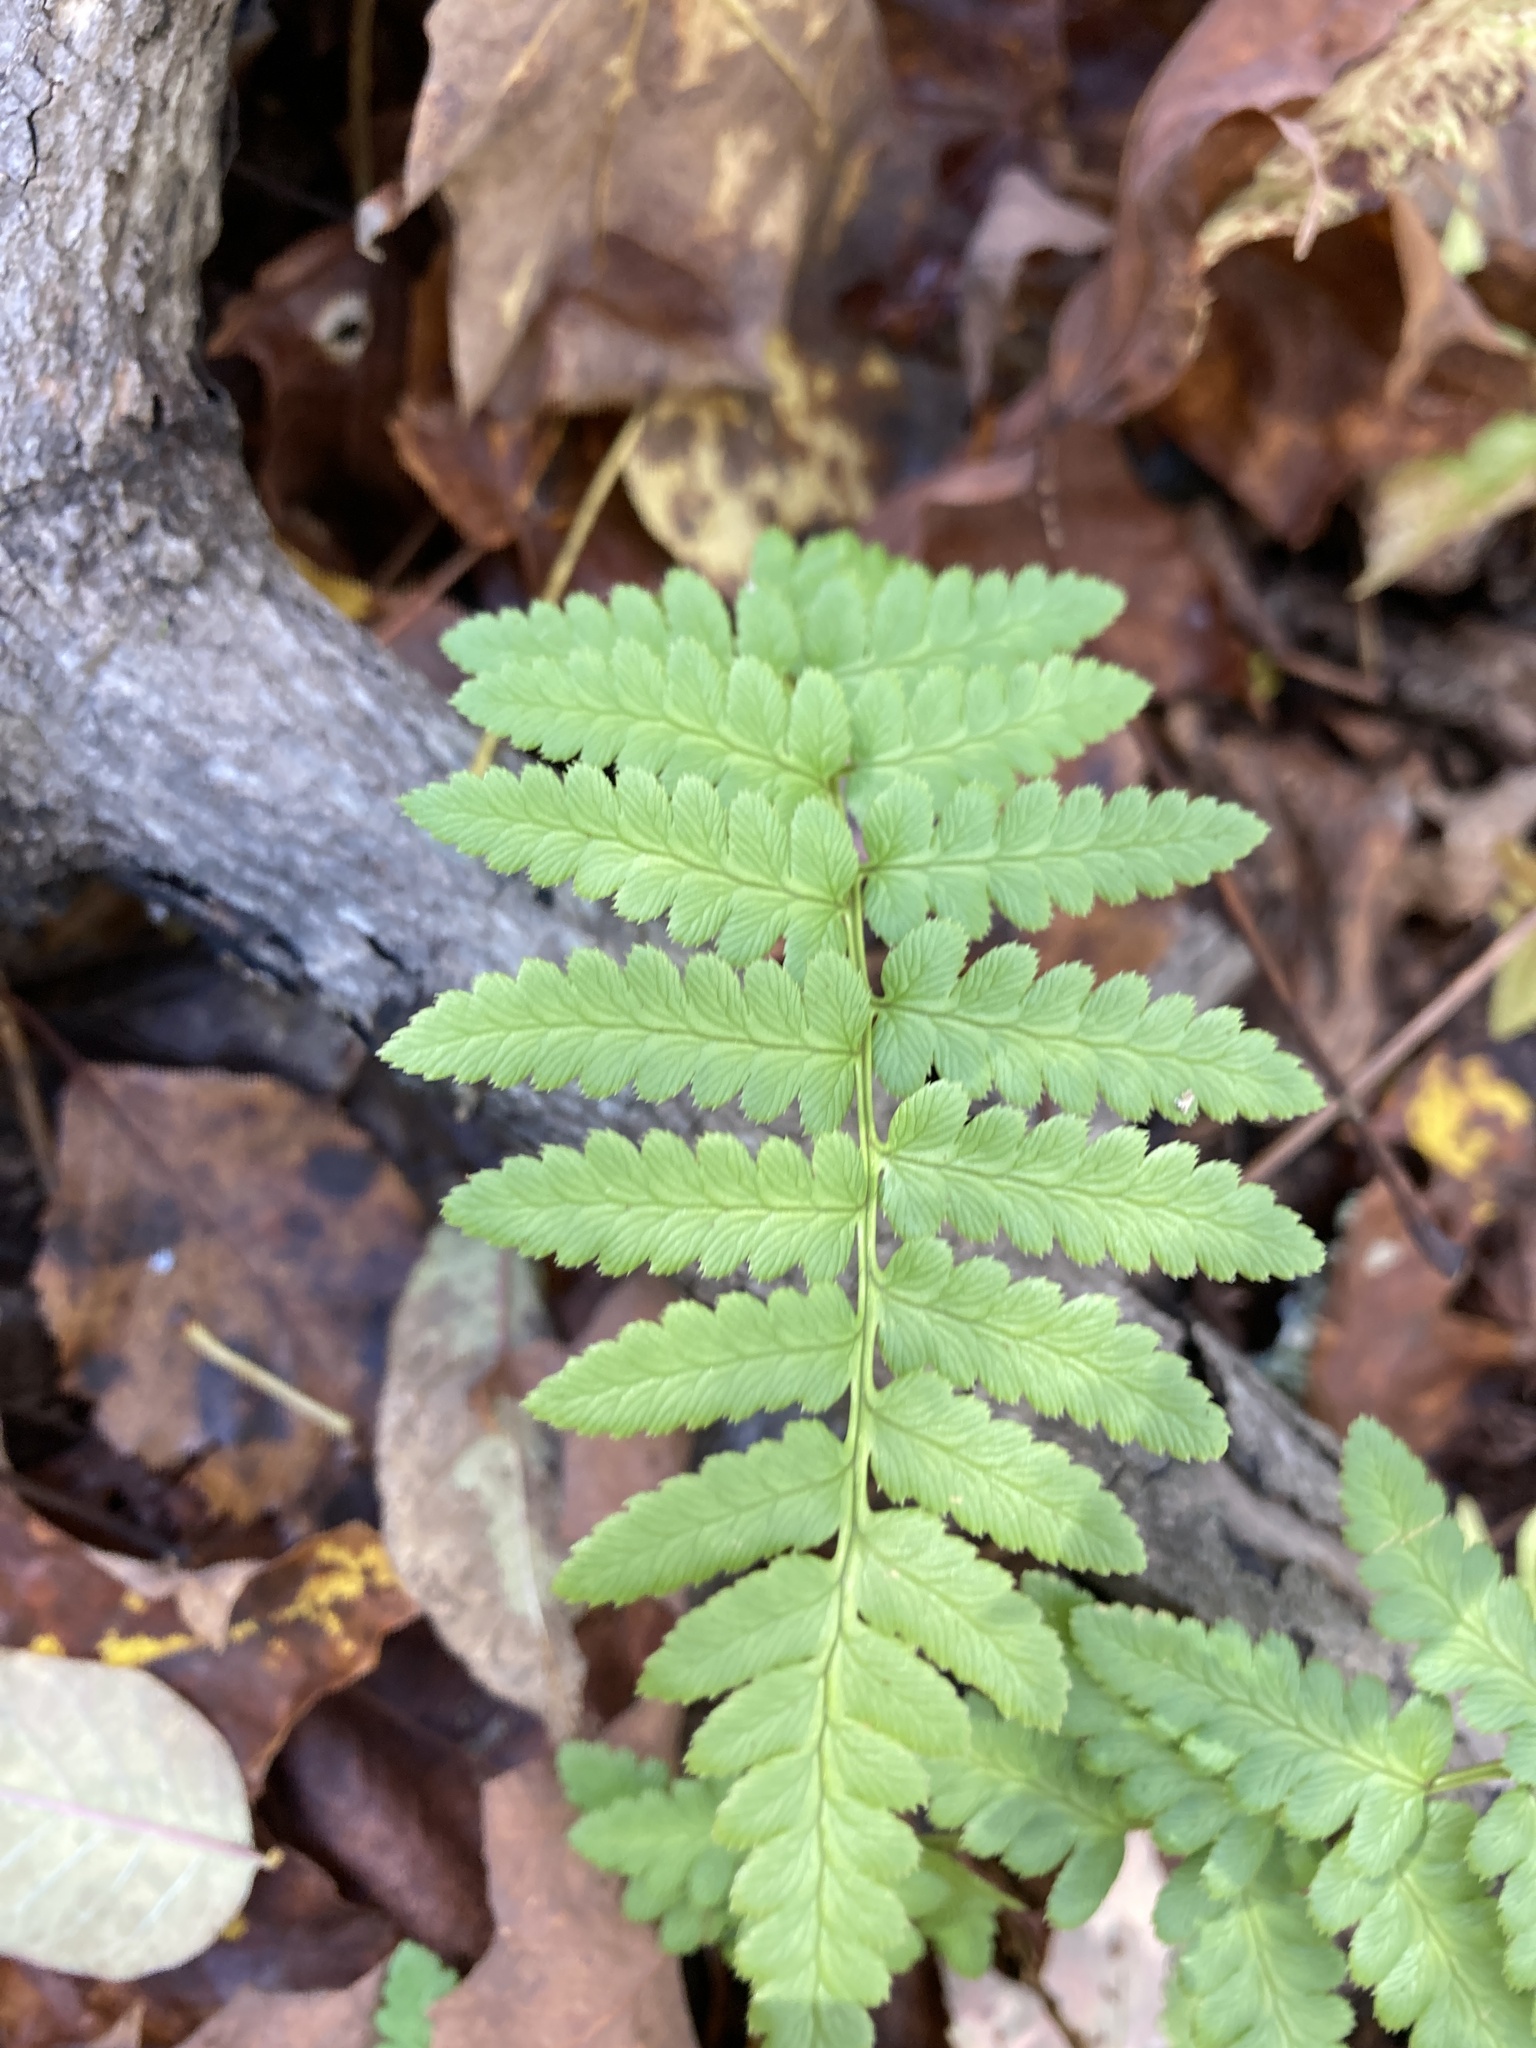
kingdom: Plantae
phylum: Tracheophyta
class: Polypodiopsida
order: Polypodiales
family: Dryopteridaceae
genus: Dryopteris
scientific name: Dryopteris cristata
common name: Crested wood fern
